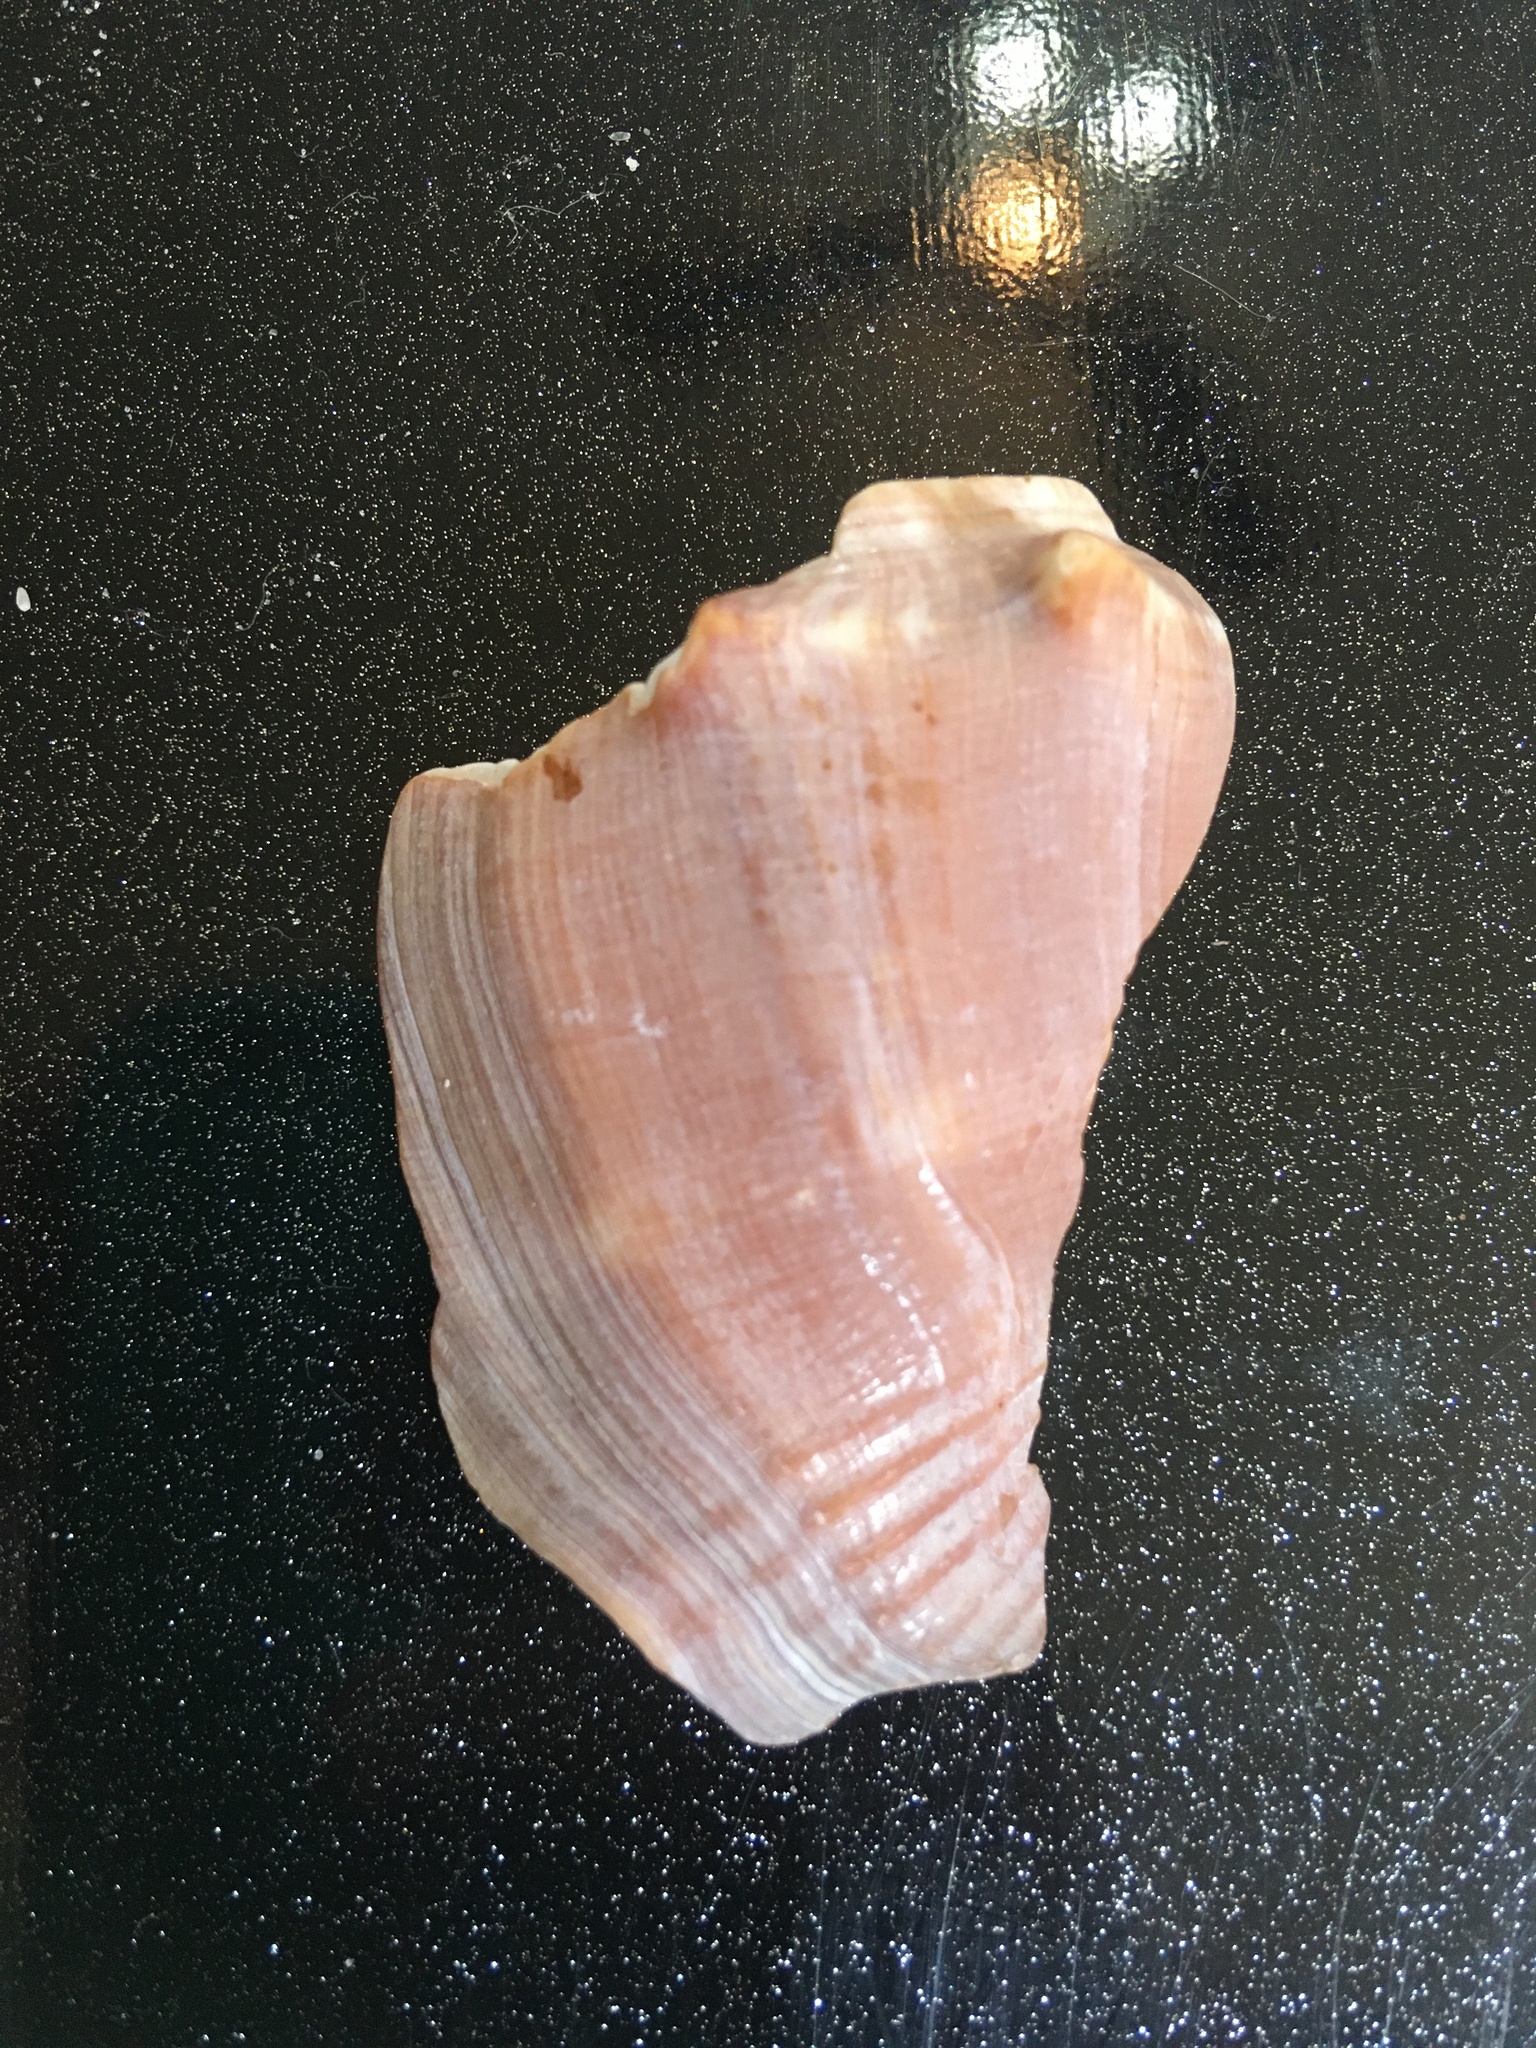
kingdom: Animalia
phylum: Mollusca
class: Gastropoda
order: Littorinimorpha
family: Strombidae
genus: Strombus
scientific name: Strombus alatus
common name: Florida fighting conch
